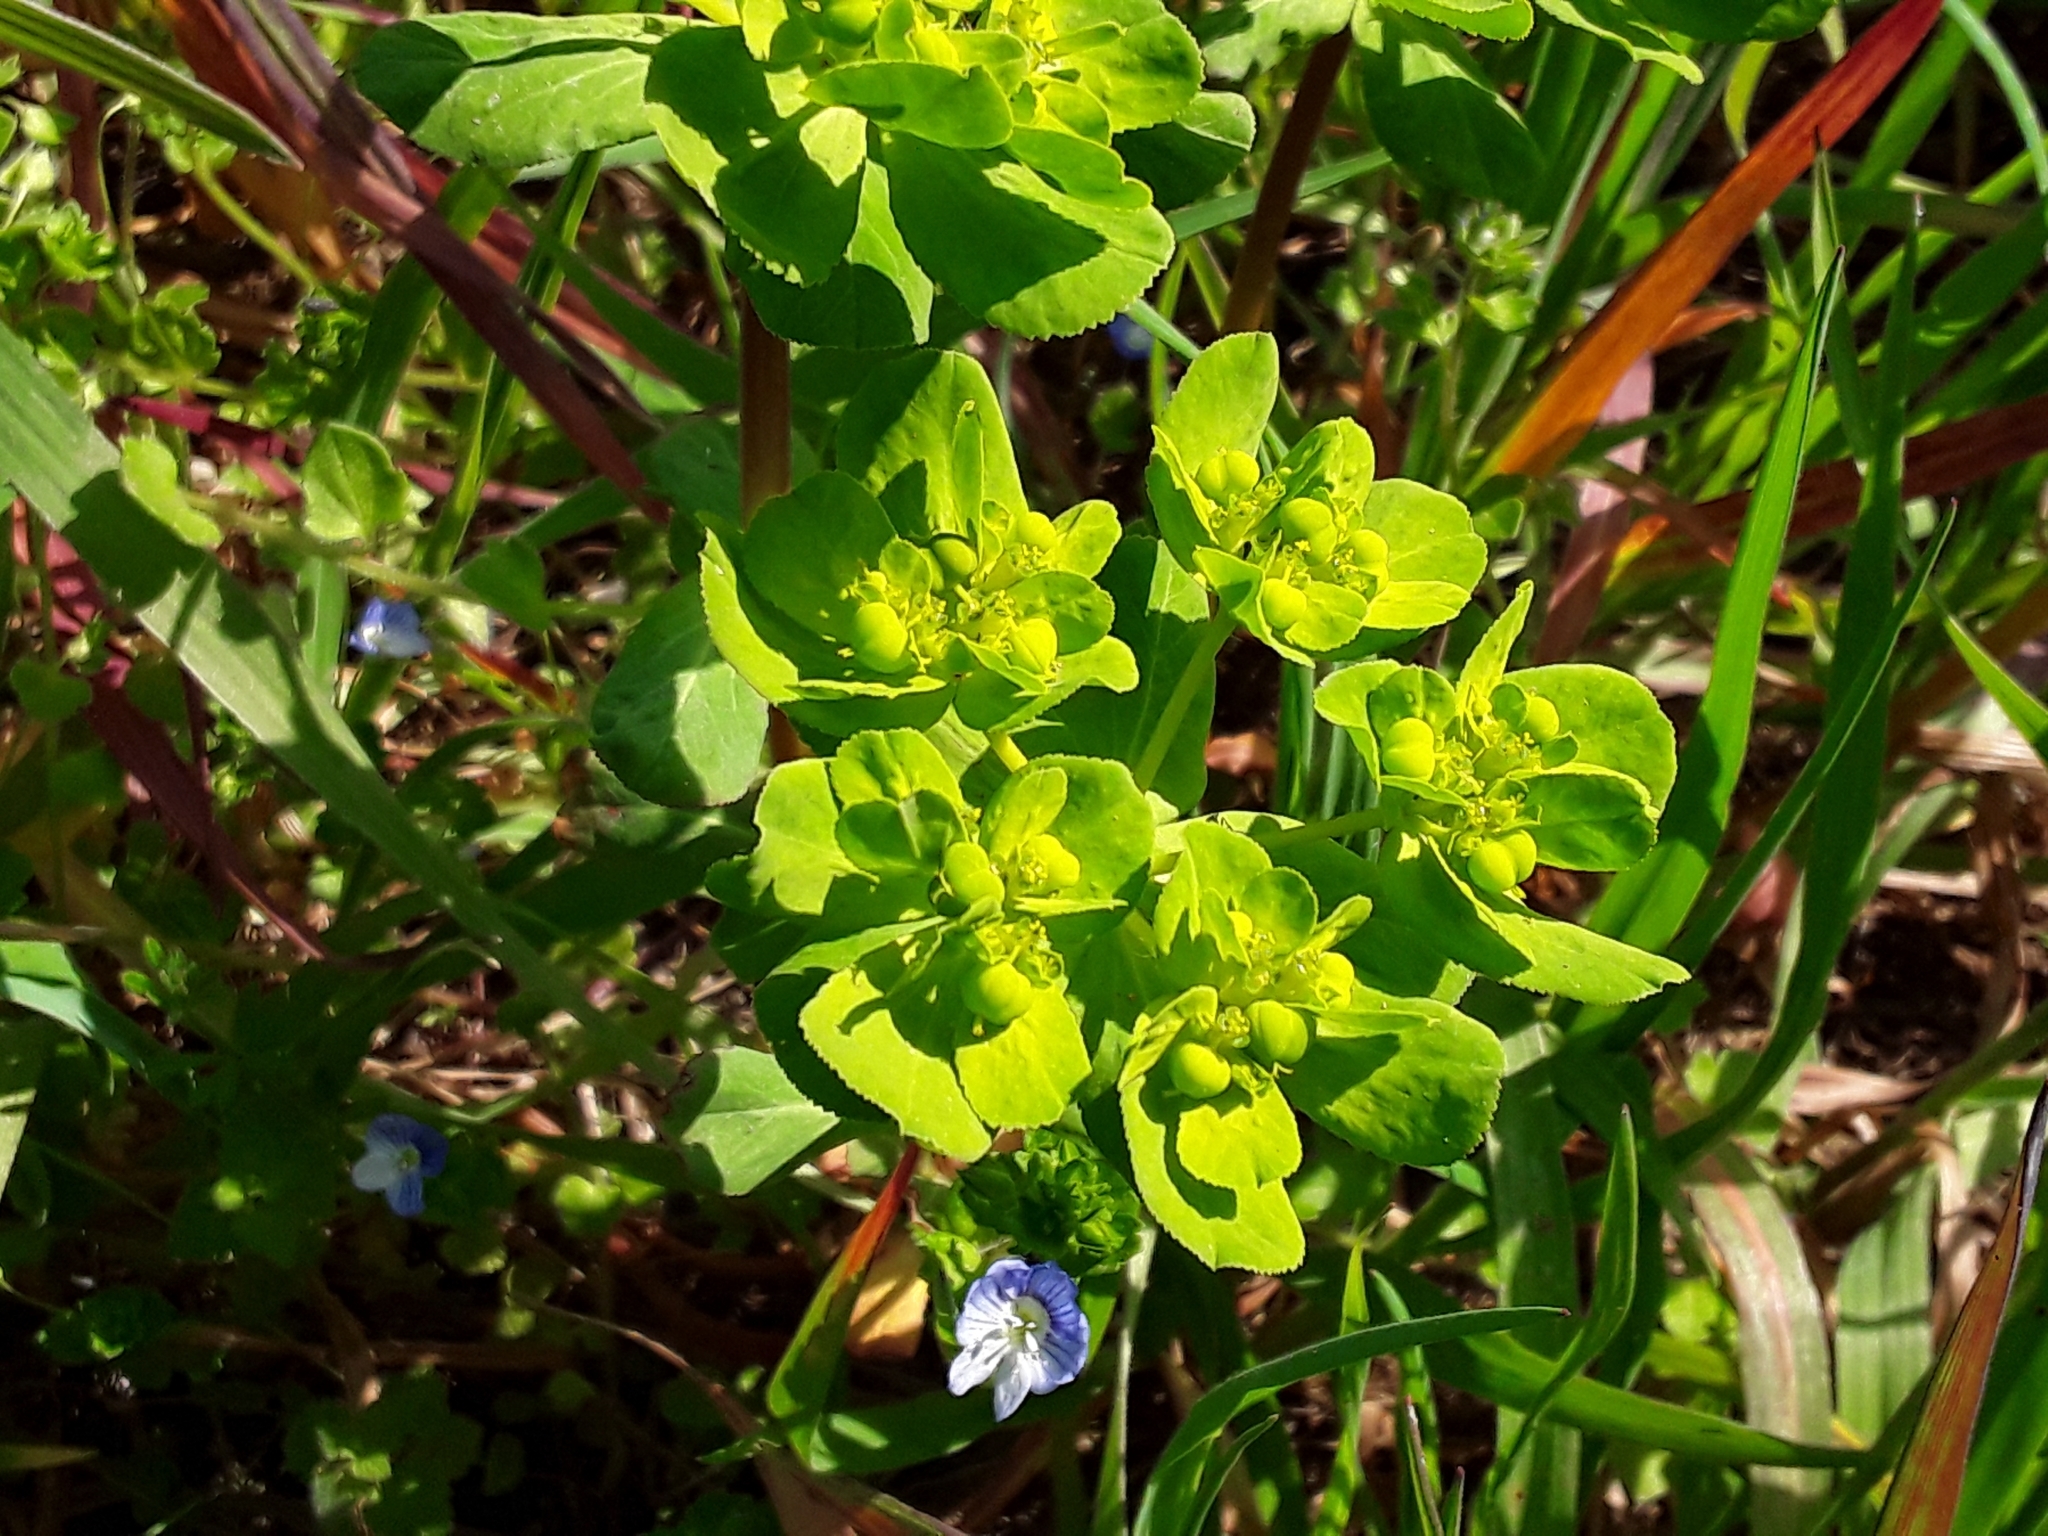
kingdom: Plantae
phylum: Tracheophyta
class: Magnoliopsida
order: Malpighiales
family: Euphorbiaceae
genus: Euphorbia
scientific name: Euphorbia helioscopia
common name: Sun spurge
